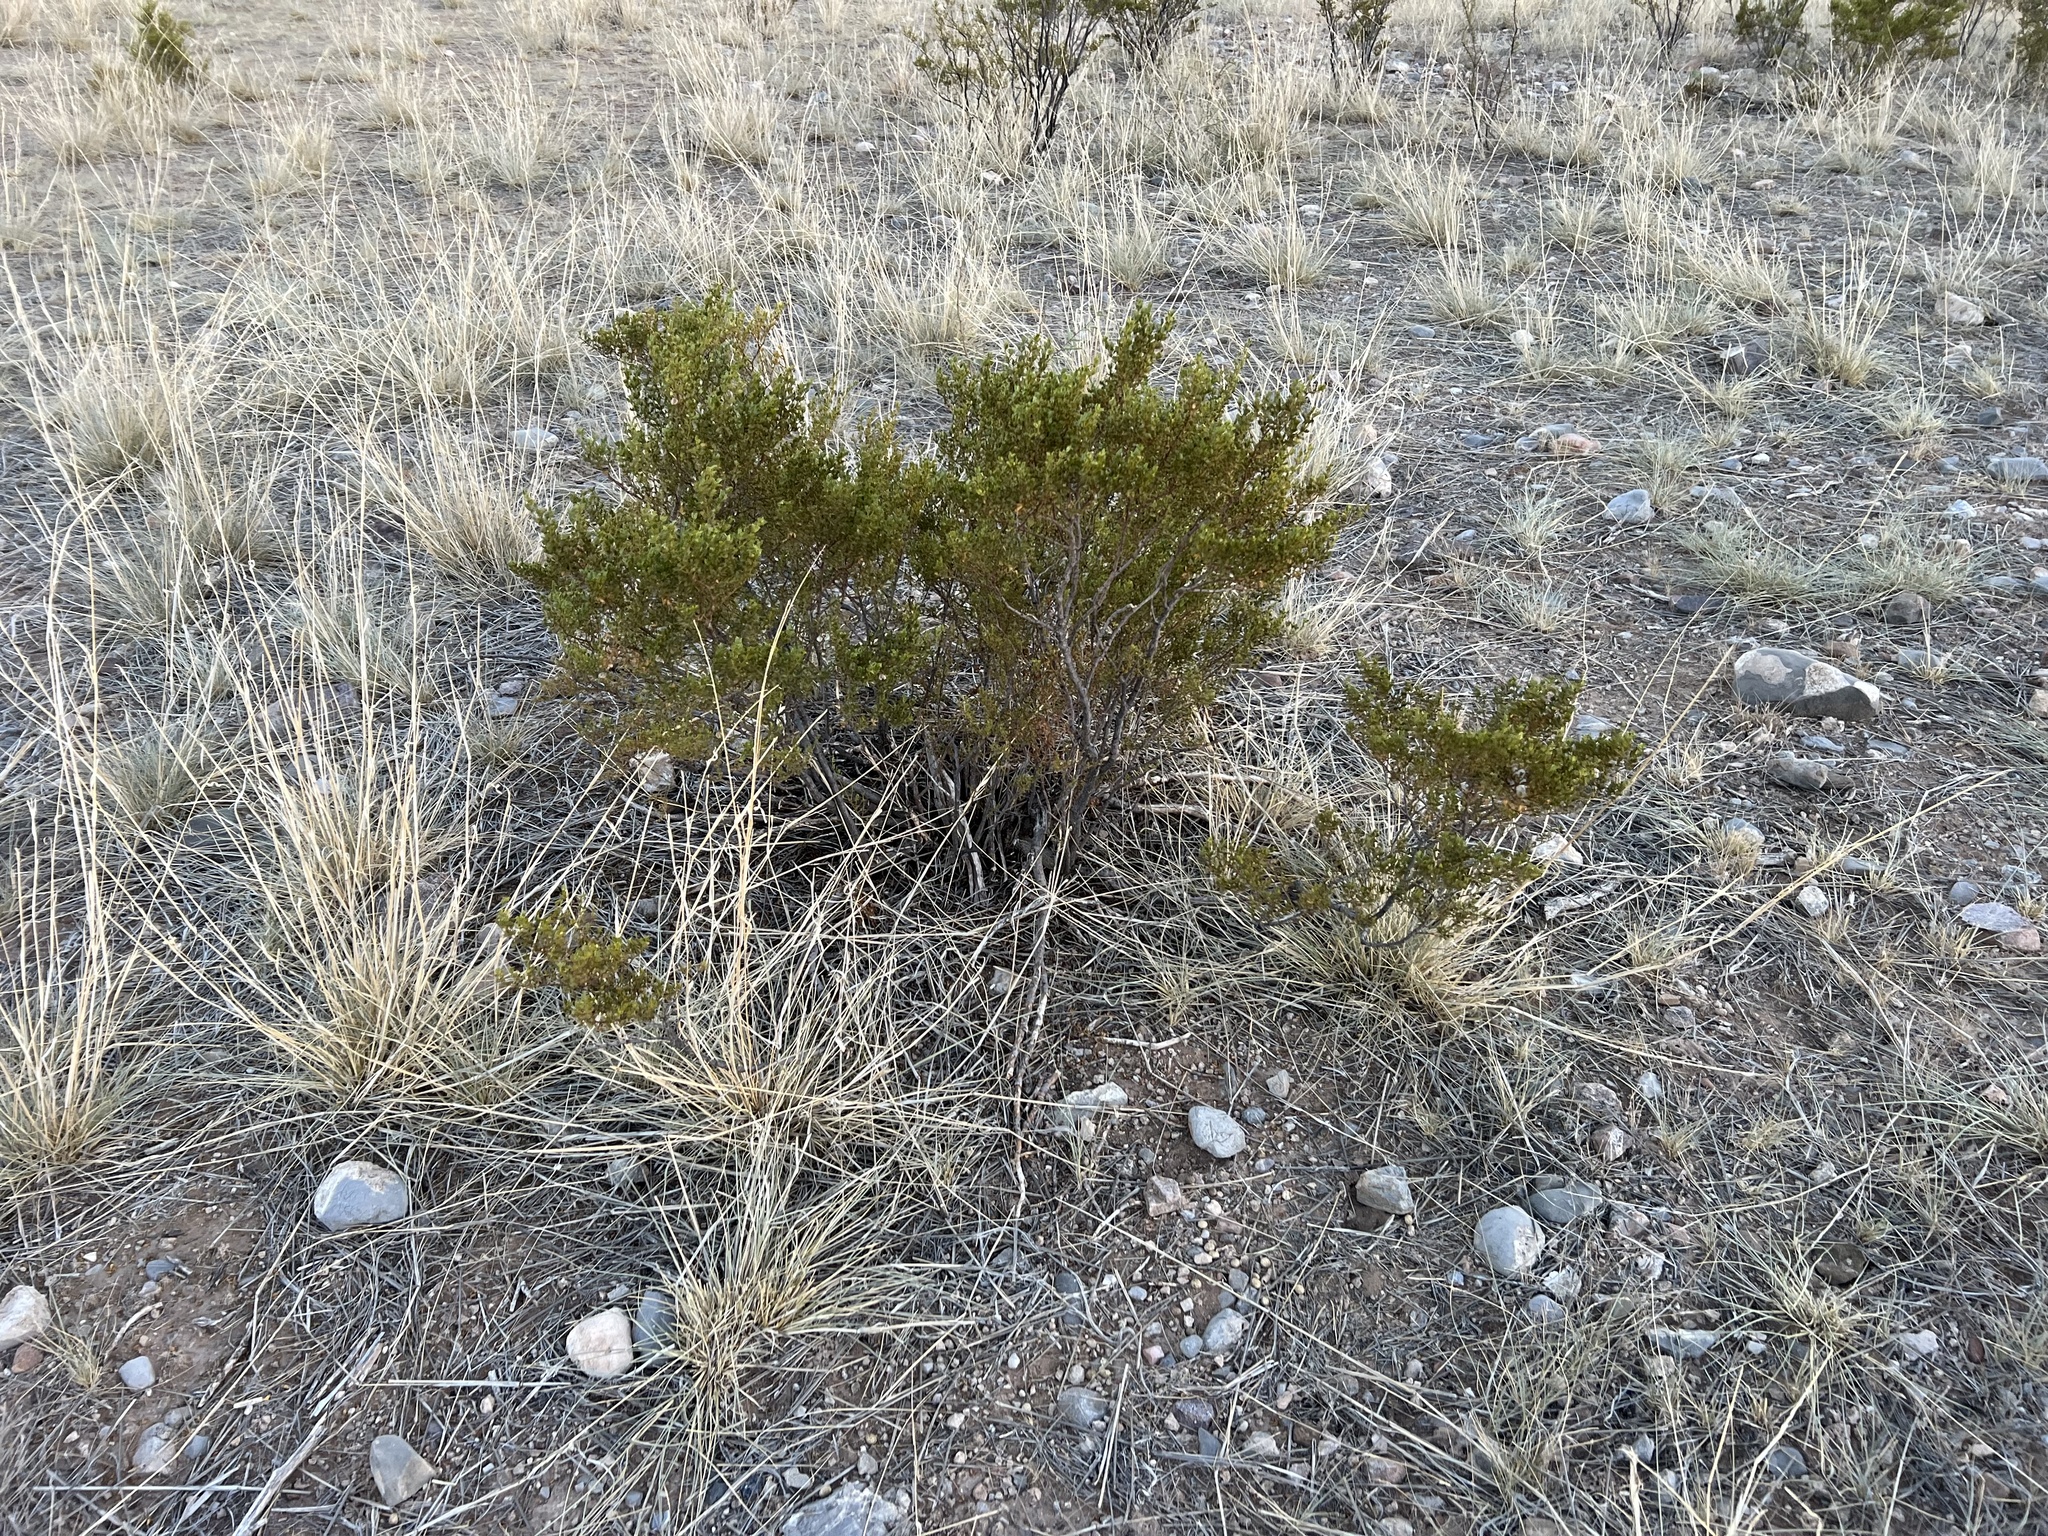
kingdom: Plantae
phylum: Tracheophyta
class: Magnoliopsida
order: Zygophyllales
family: Zygophyllaceae
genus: Larrea
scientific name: Larrea tridentata
